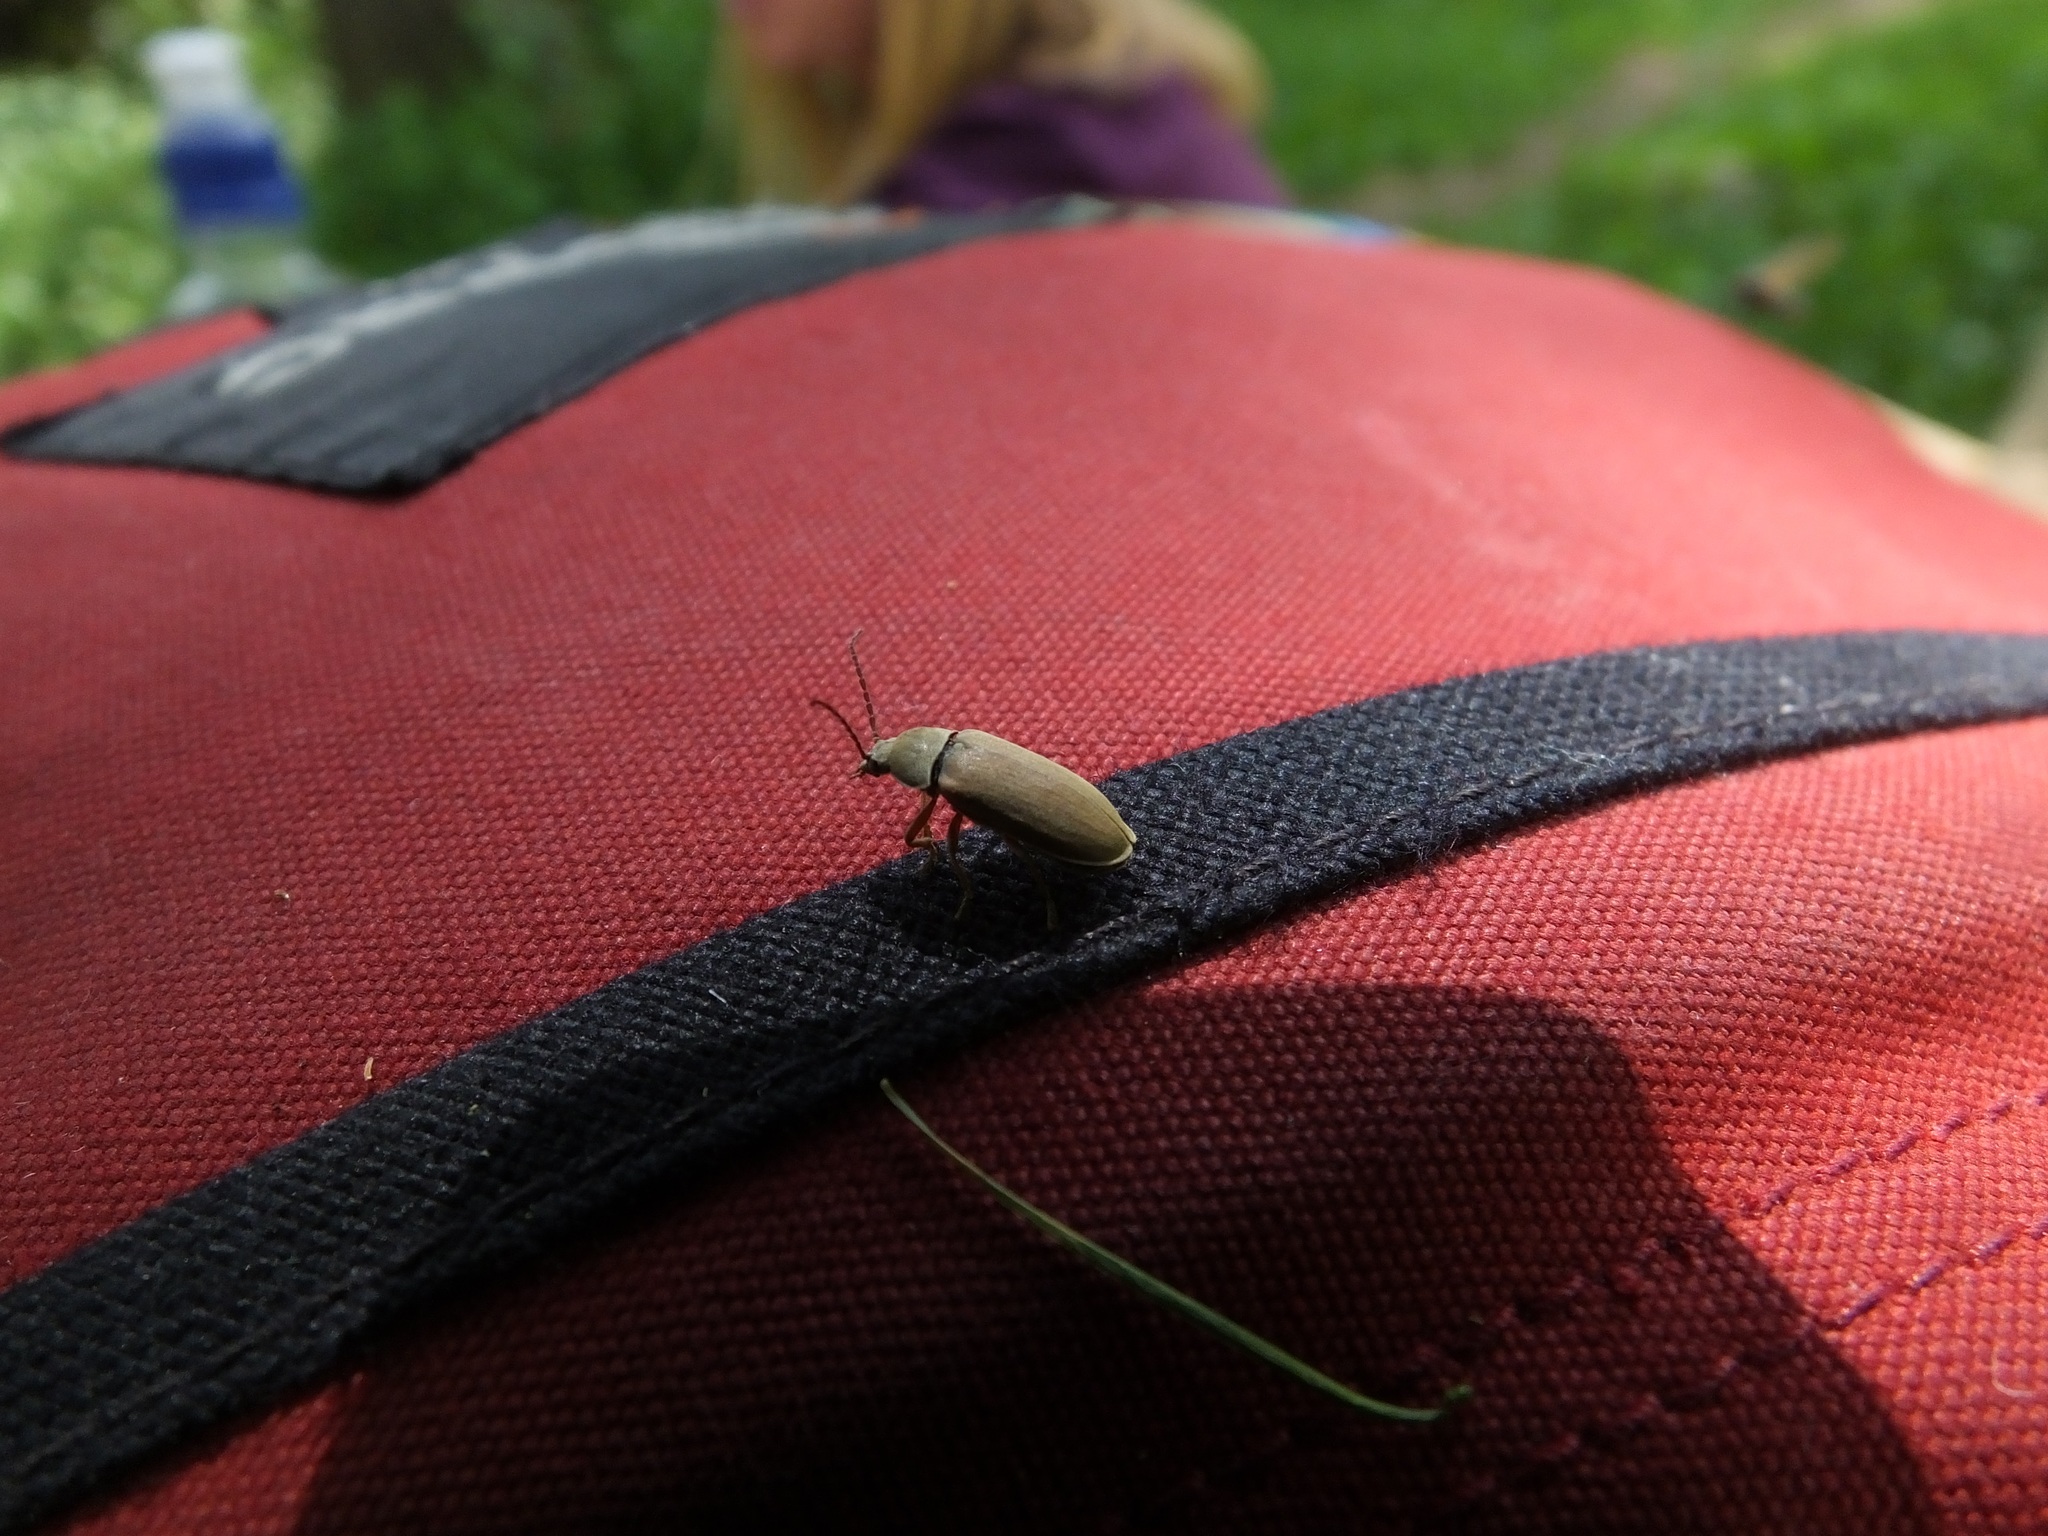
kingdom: Animalia
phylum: Arthropoda
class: Insecta
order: Coleoptera
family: Dascillidae
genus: Dascillus
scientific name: Dascillus cervinus
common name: Orchid beetle
